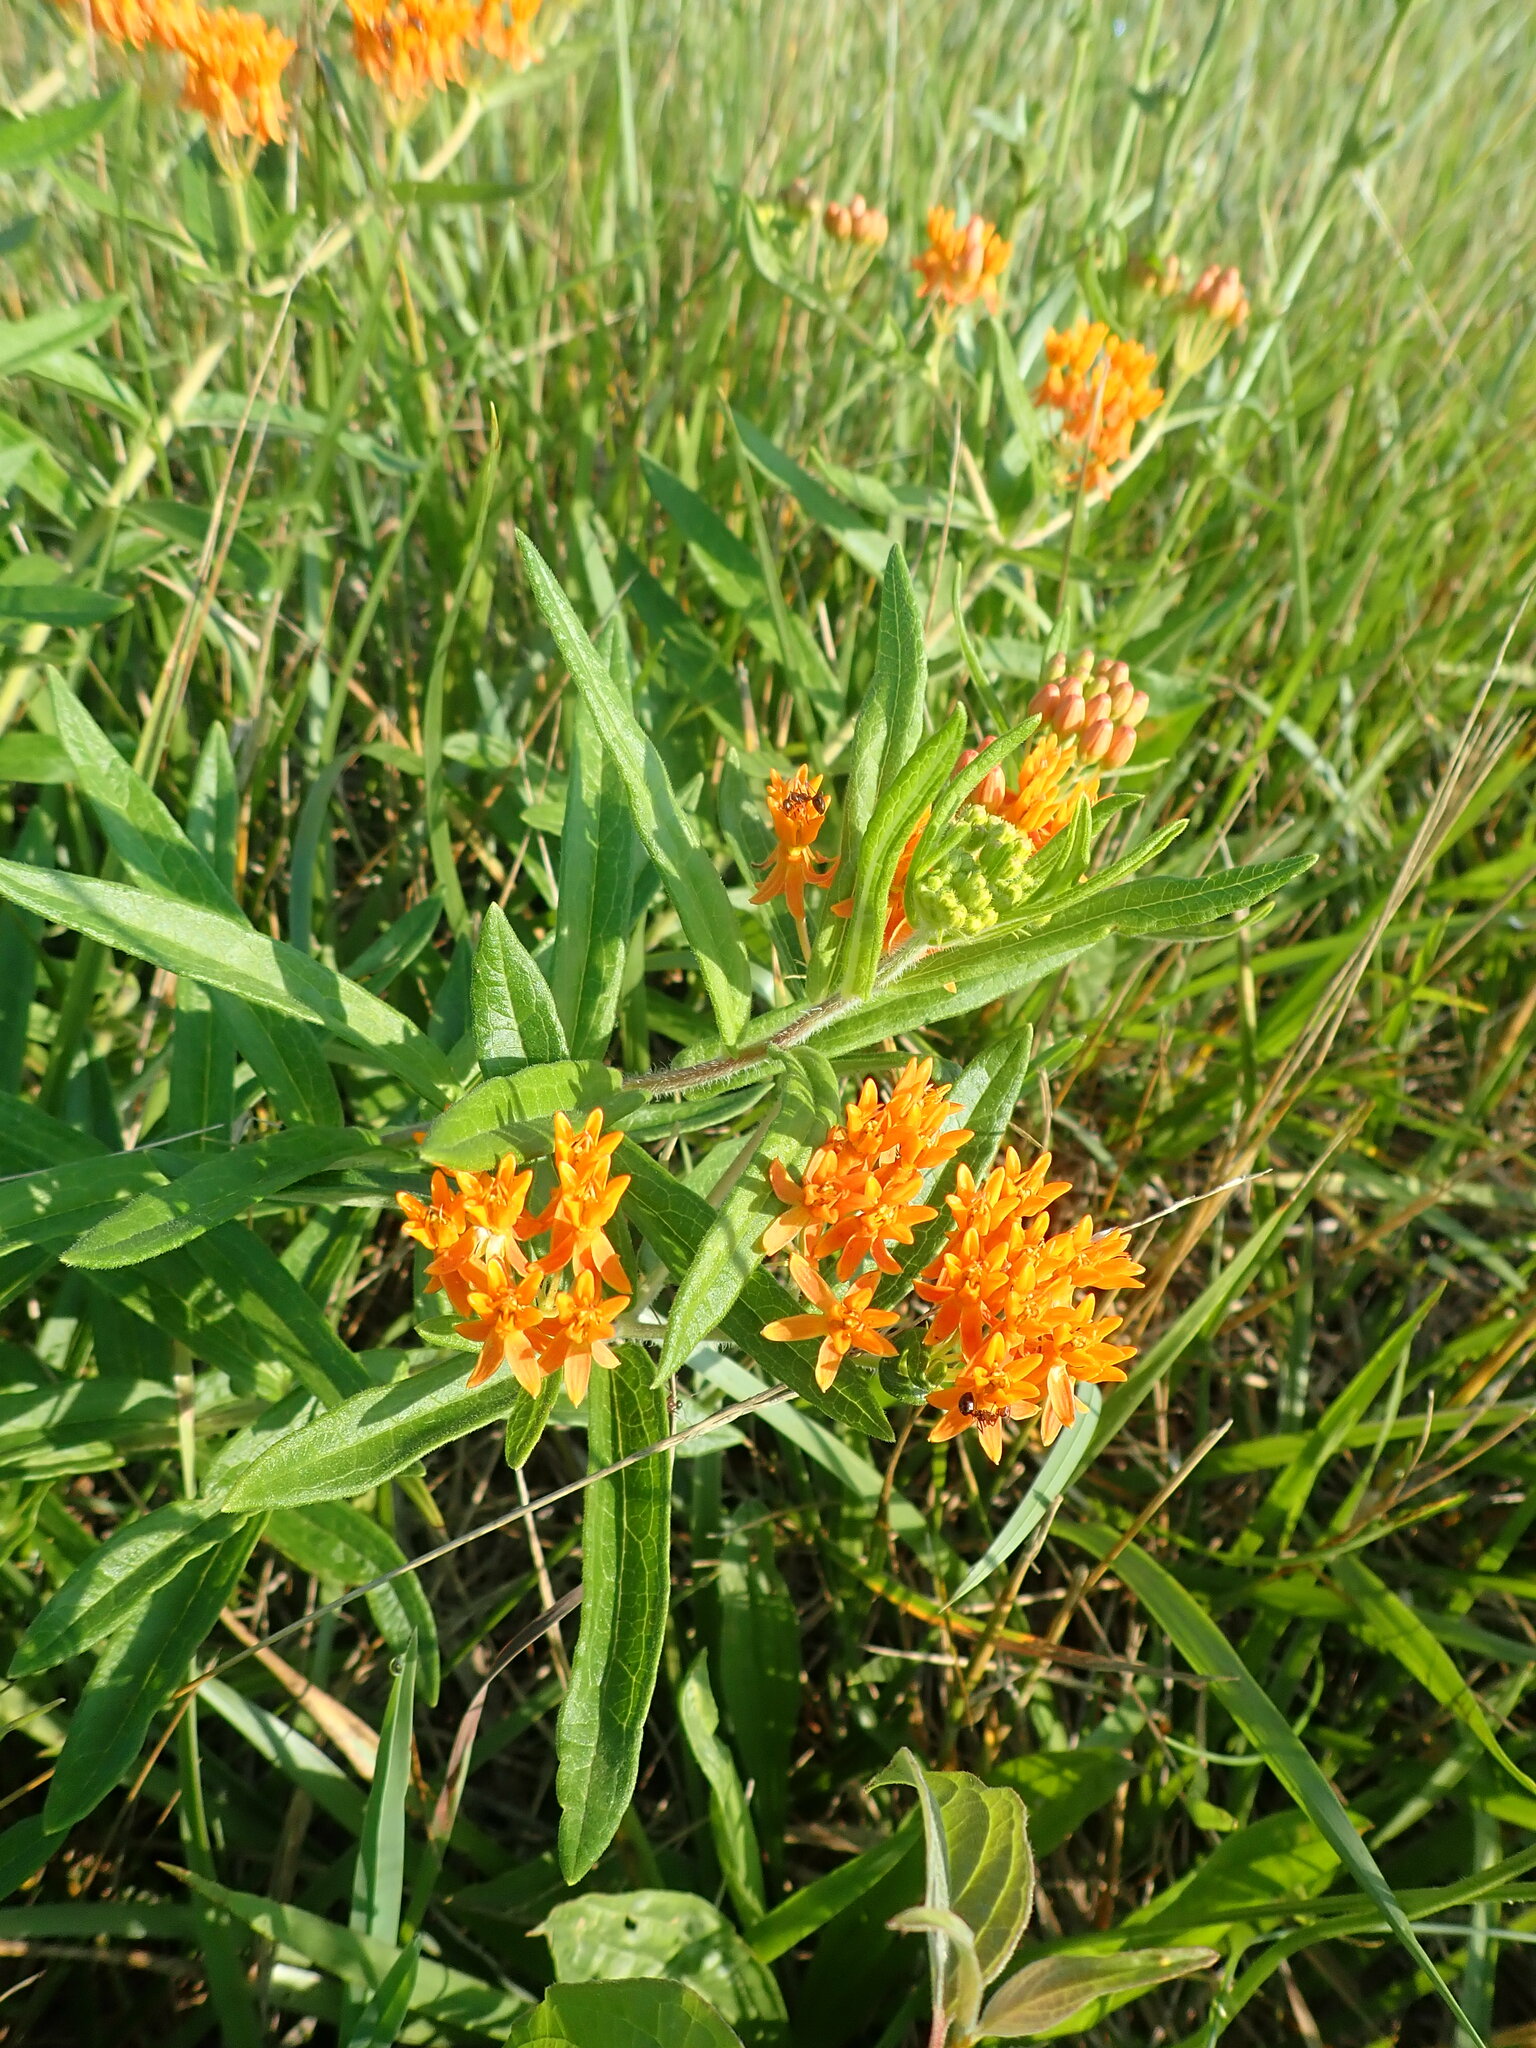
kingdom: Plantae
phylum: Tracheophyta
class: Magnoliopsida
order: Gentianales
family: Apocynaceae
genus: Asclepias
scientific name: Asclepias tuberosa
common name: Butterfly milkweed
